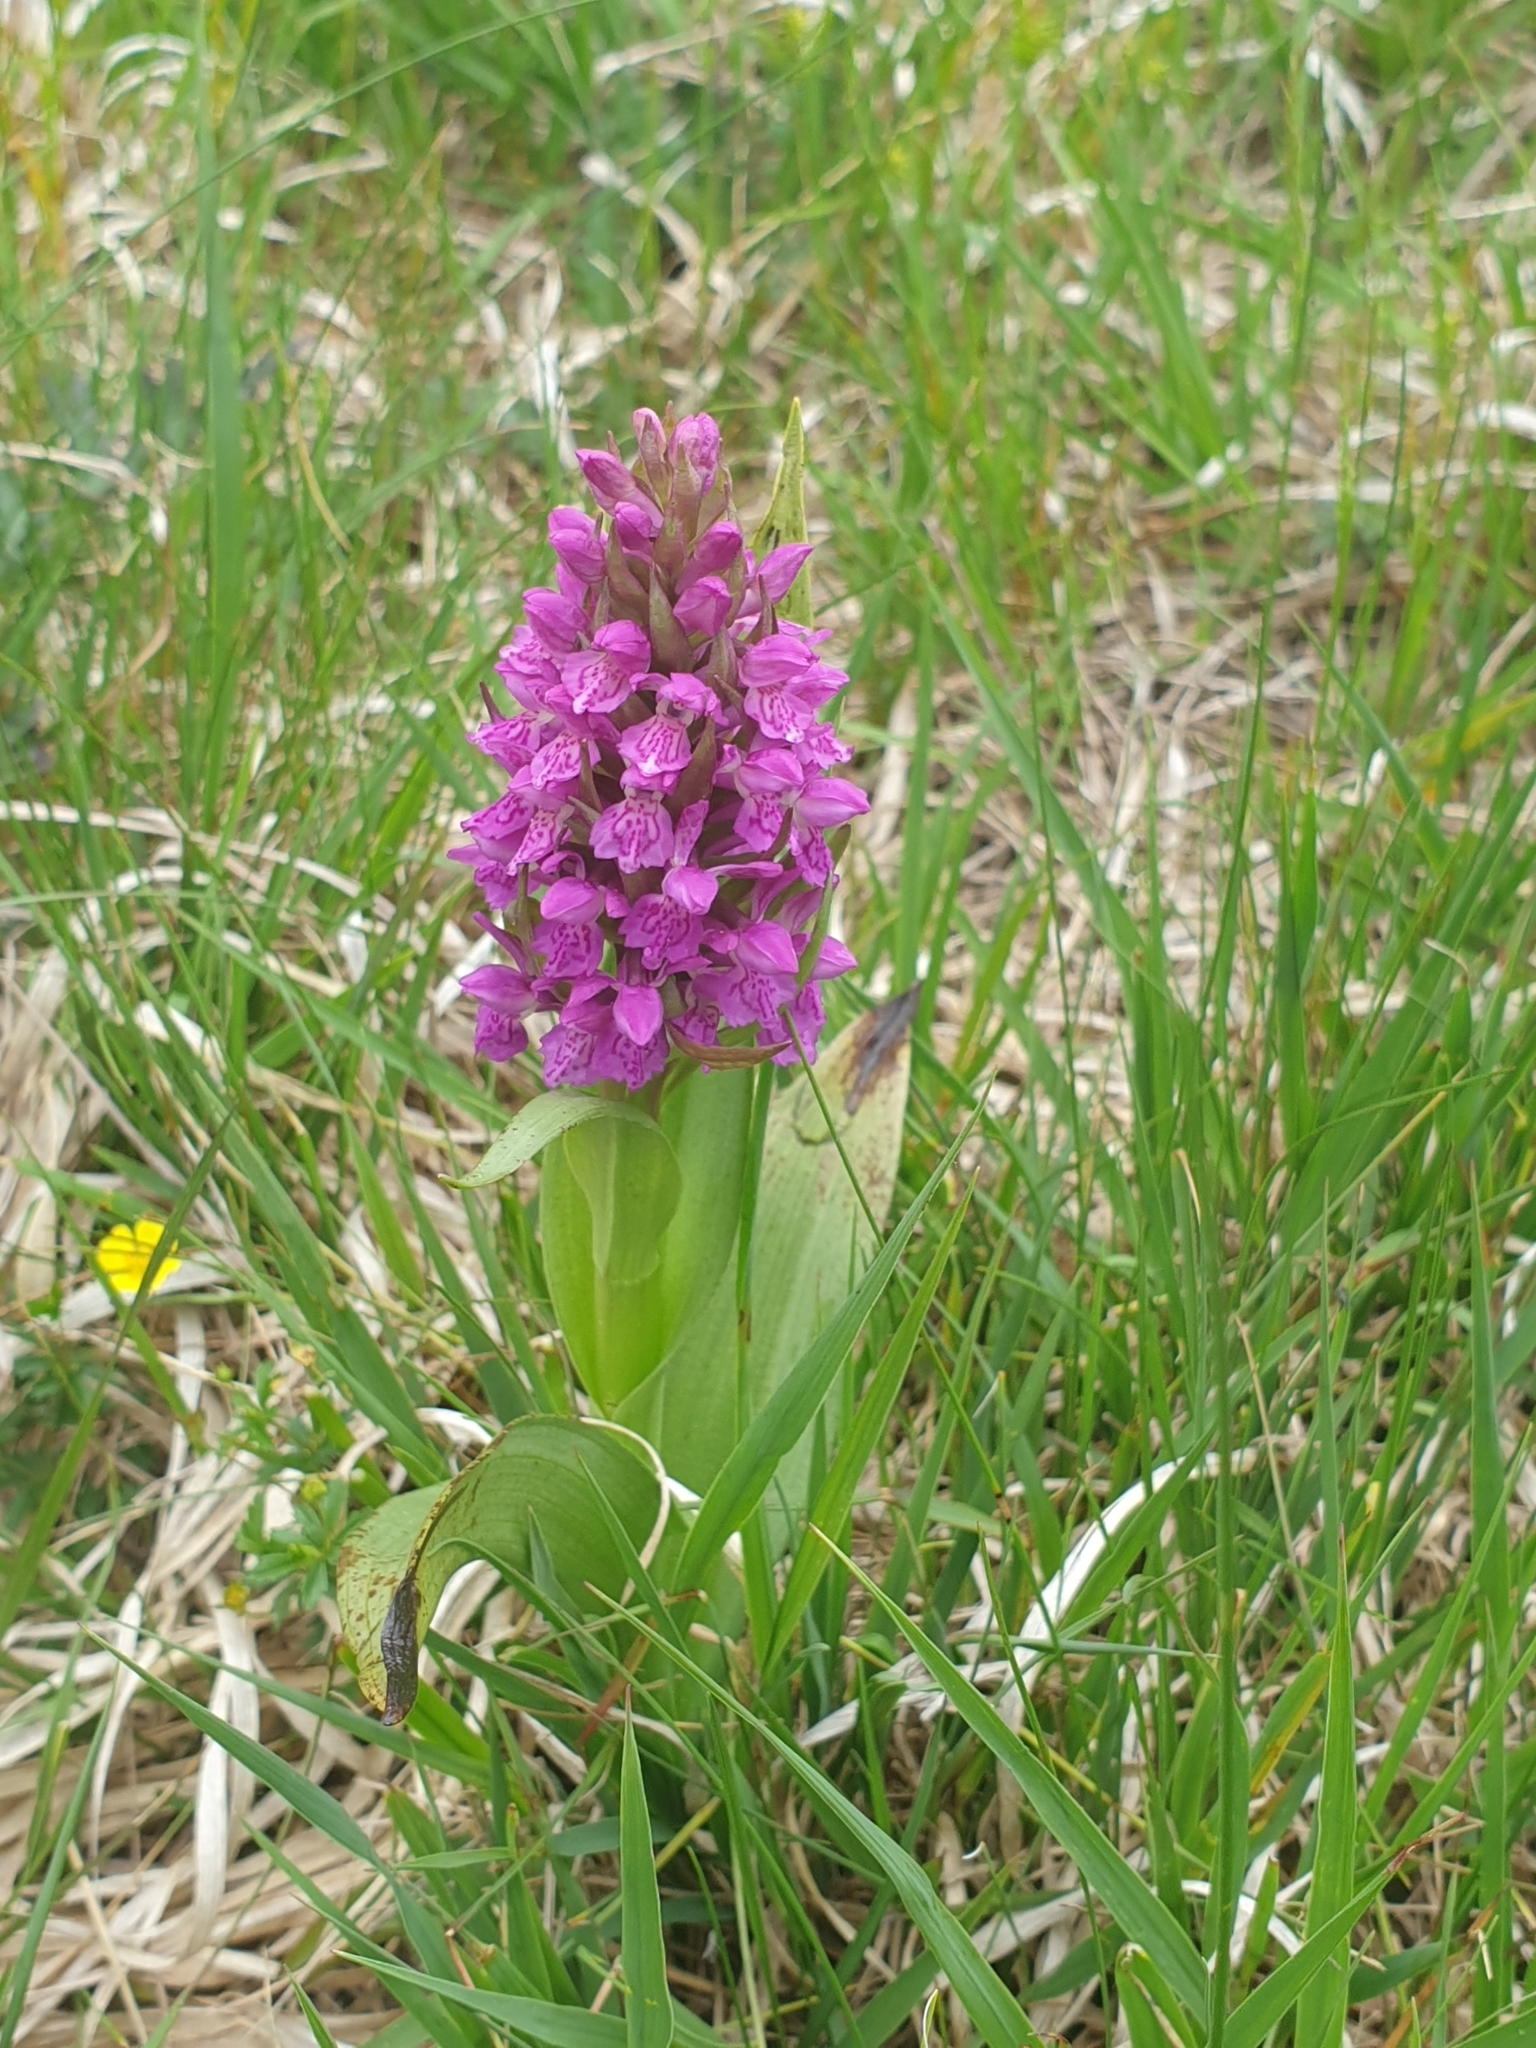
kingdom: Plantae
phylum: Tracheophyta
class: Liliopsida
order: Asparagales
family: Orchidaceae
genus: Dactylorhiza
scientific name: Dactylorhiza majalis
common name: Marsh orchid
